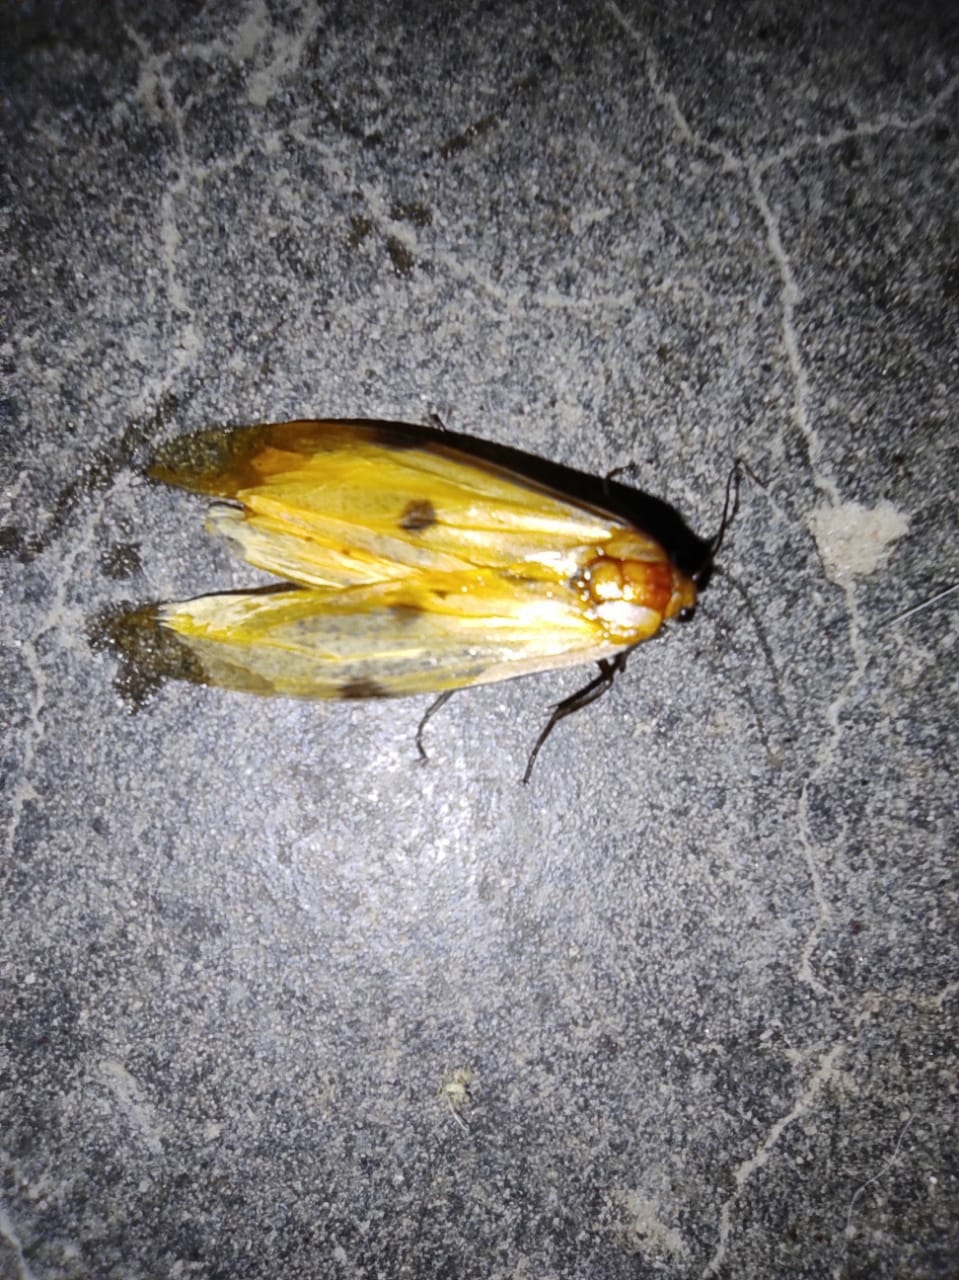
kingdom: Animalia
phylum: Arthropoda
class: Insecta
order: Lepidoptera
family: Erebidae
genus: Lithosia
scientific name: Lithosia quadra
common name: Four-spotted footman
